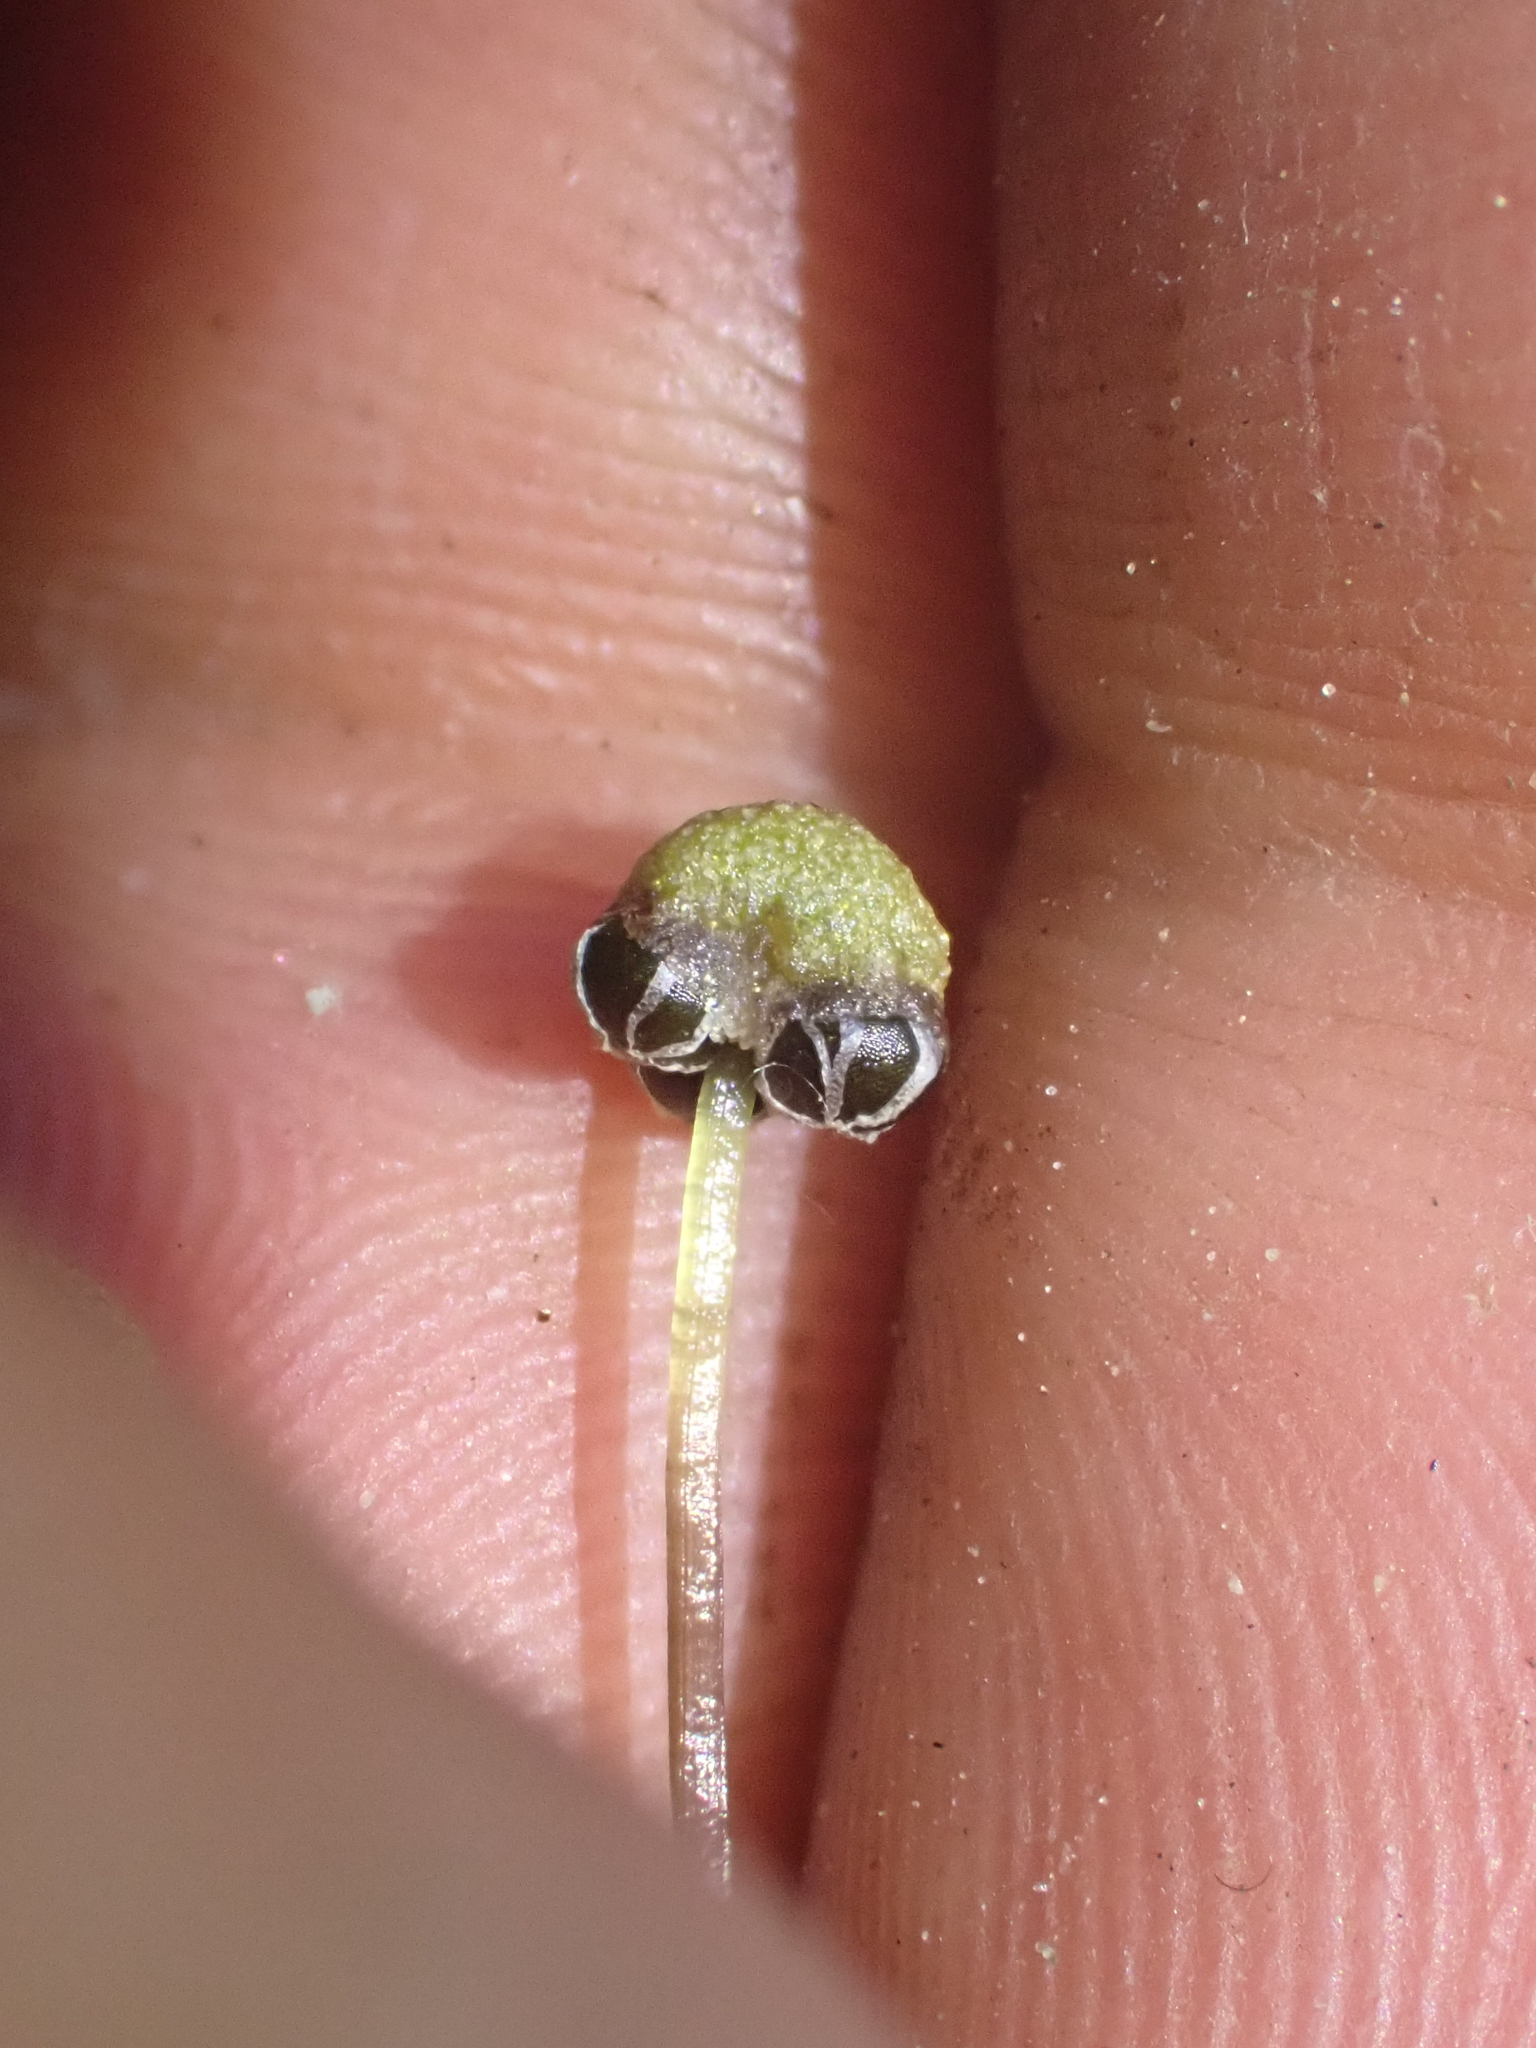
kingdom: Plantae
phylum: Marchantiophyta
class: Marchantiopsida
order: Marchantiales
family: Aytoniaceae
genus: Mannia
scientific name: Mannia gracilis
